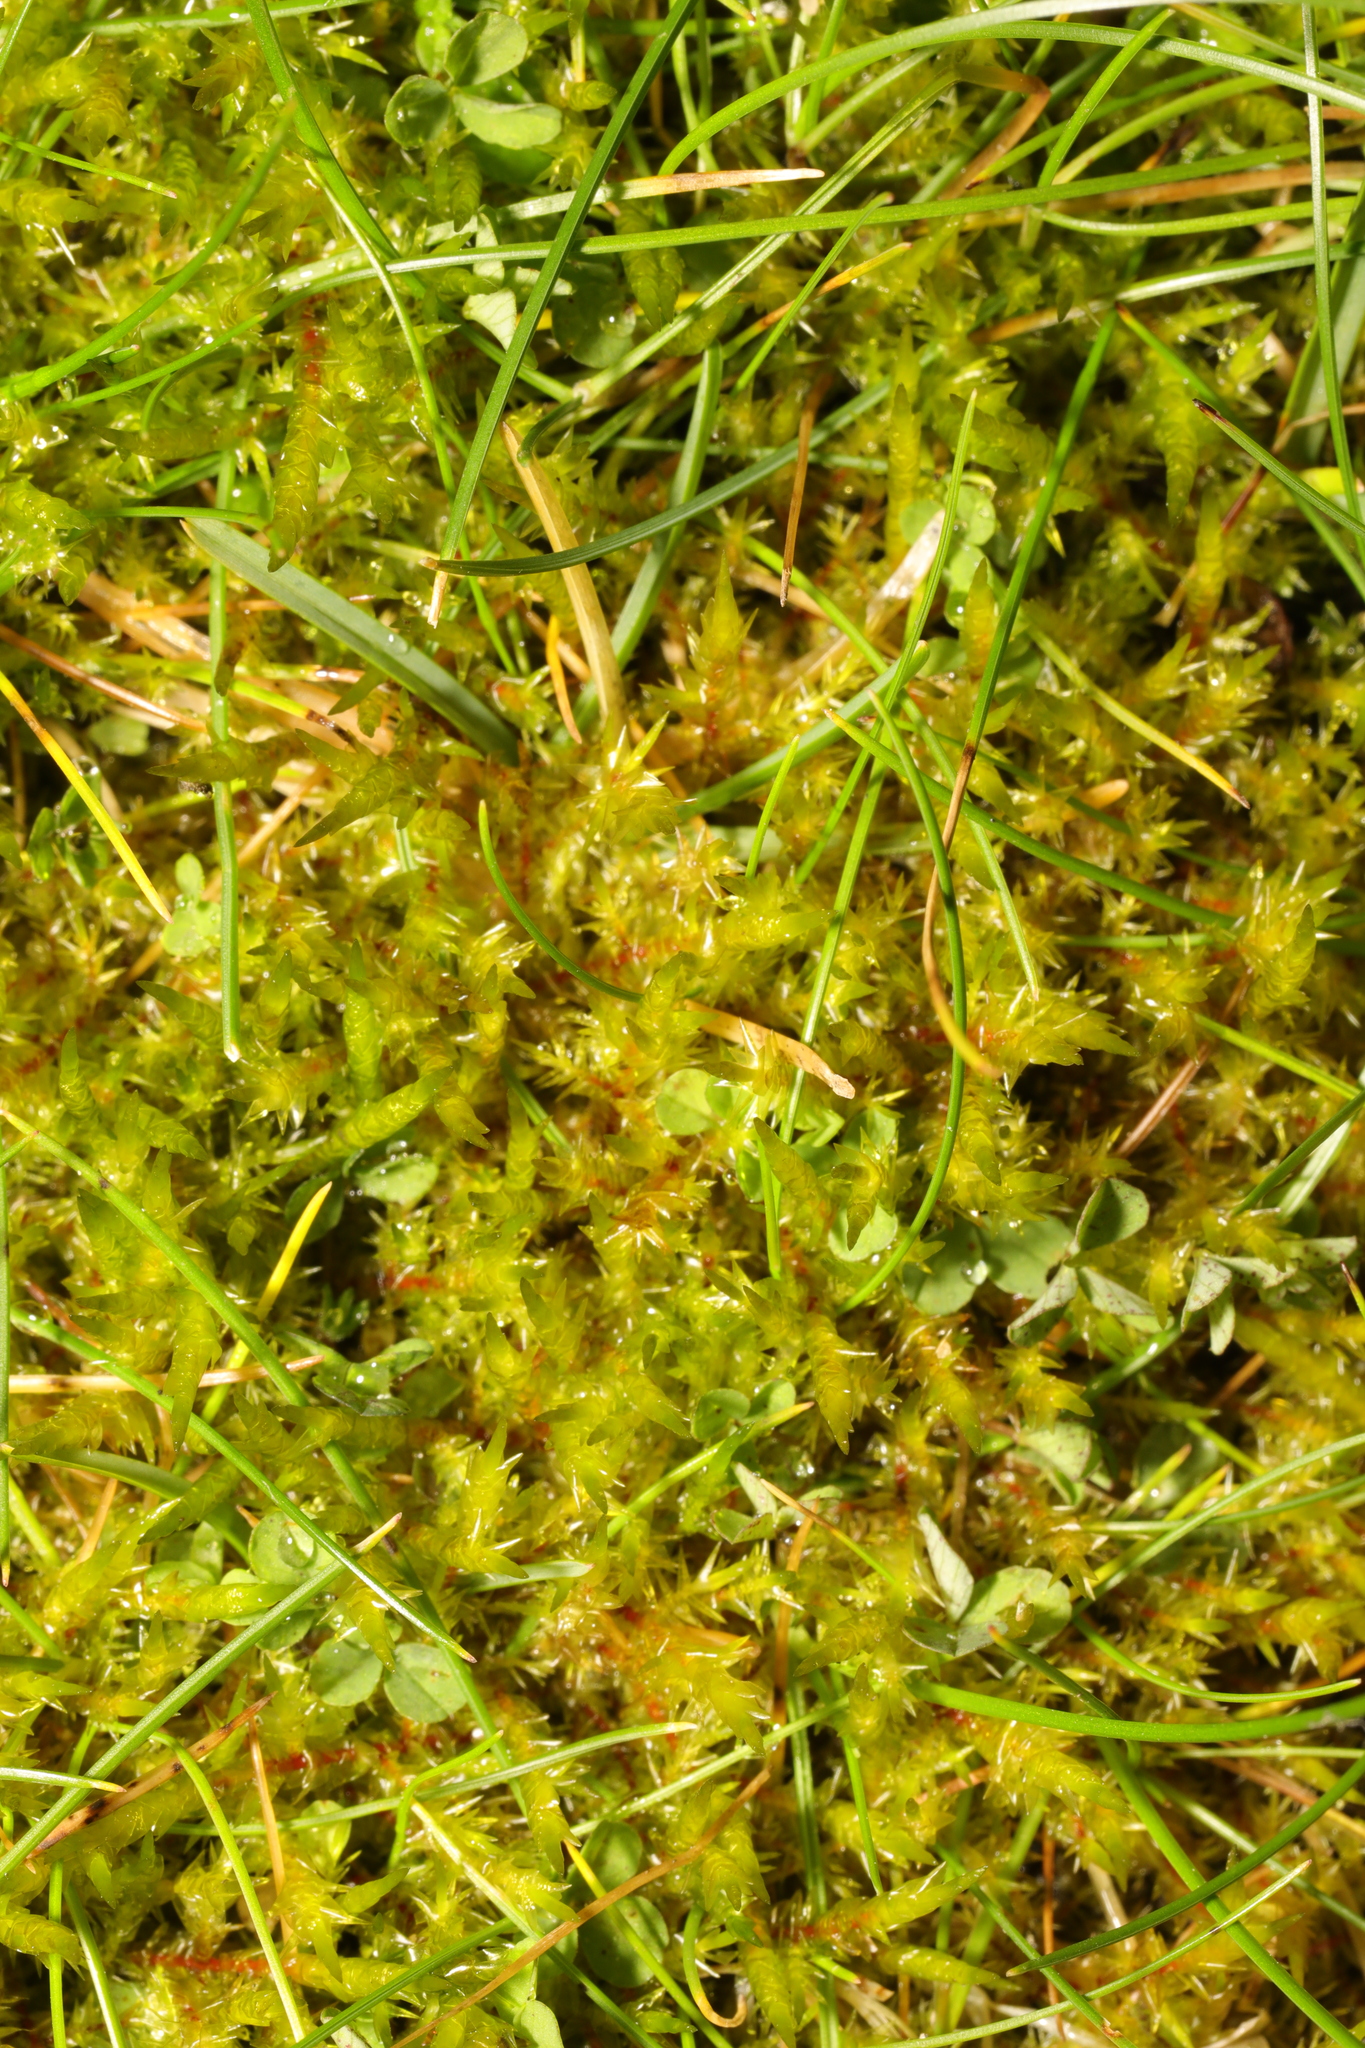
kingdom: Plantae
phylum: Bryophyta
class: Bryopsida
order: Hypnales
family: Pylaisiaceae
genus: Calliergonella
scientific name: Calliergonella cuspidata
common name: Common large wetland moss
